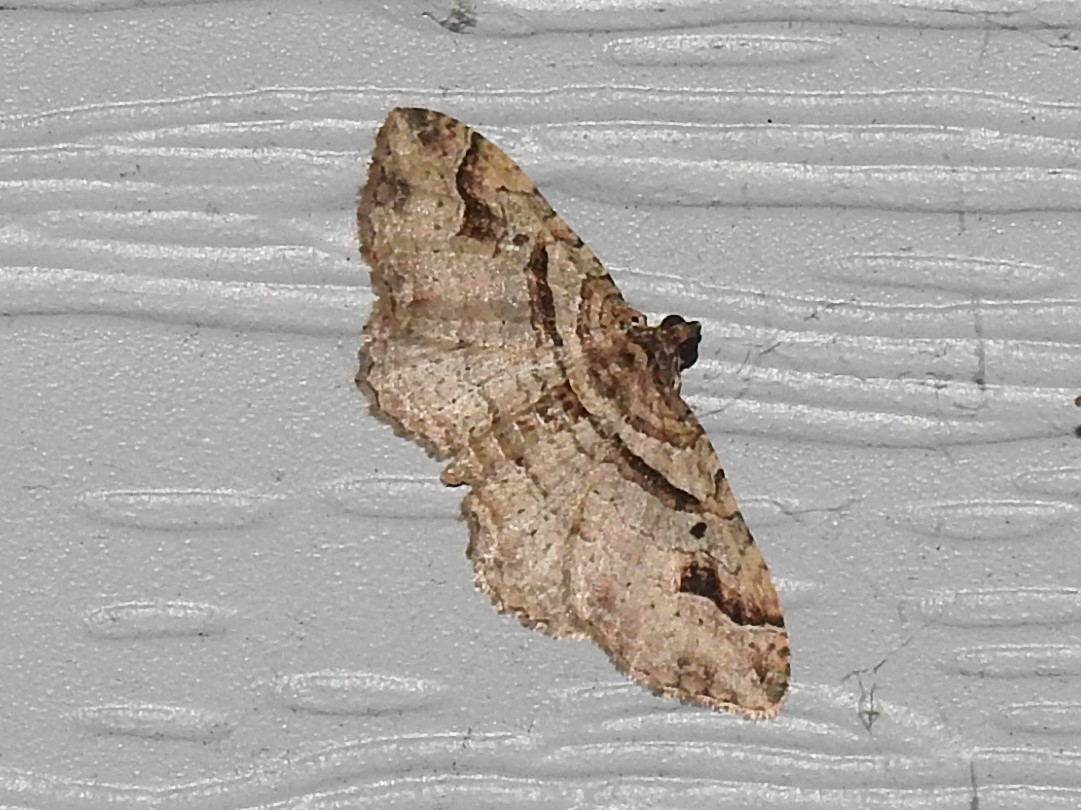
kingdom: Animalia
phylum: Arthropoda
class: Insecta
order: Lepidoptera
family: Geometridae
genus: Costaconvexa
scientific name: Costaconvexa centrostrigaria
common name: Bent-line carpet
